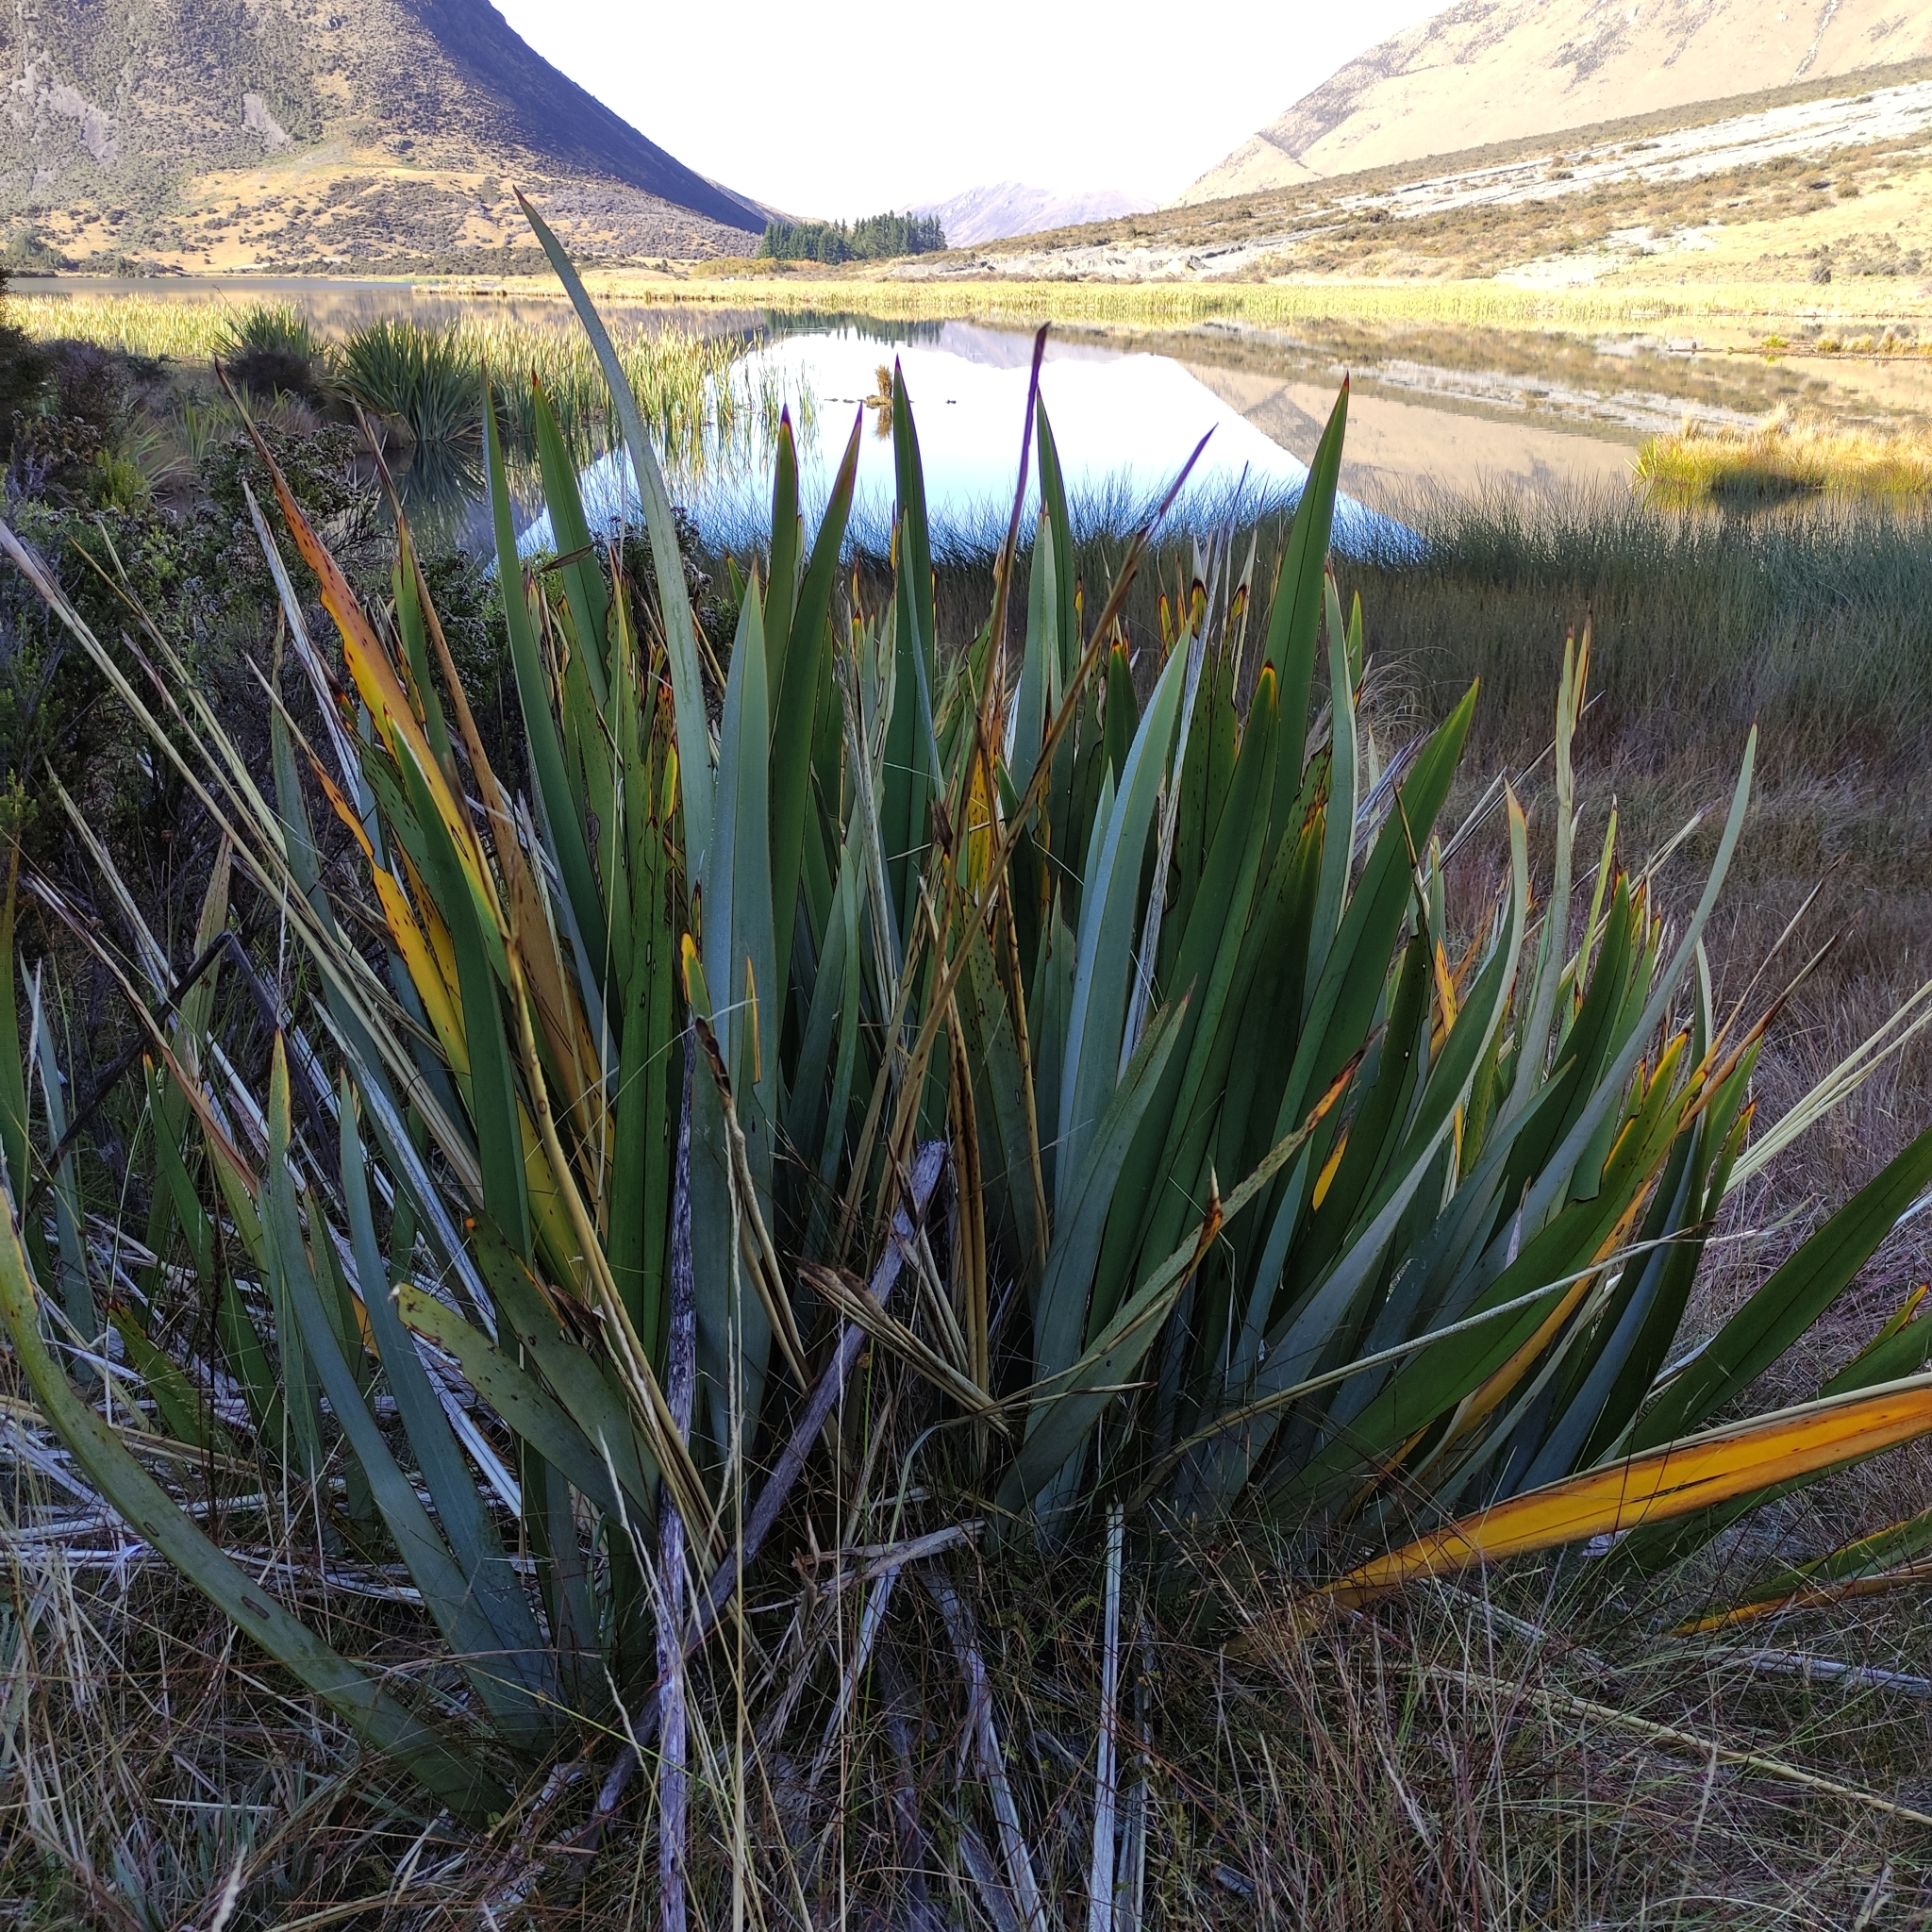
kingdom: Plantae
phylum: Tracheophyta
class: Liliopsida
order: Asparagales
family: Asphodelaceae
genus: Phormium
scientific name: Phormium tenax
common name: New zealand flax
